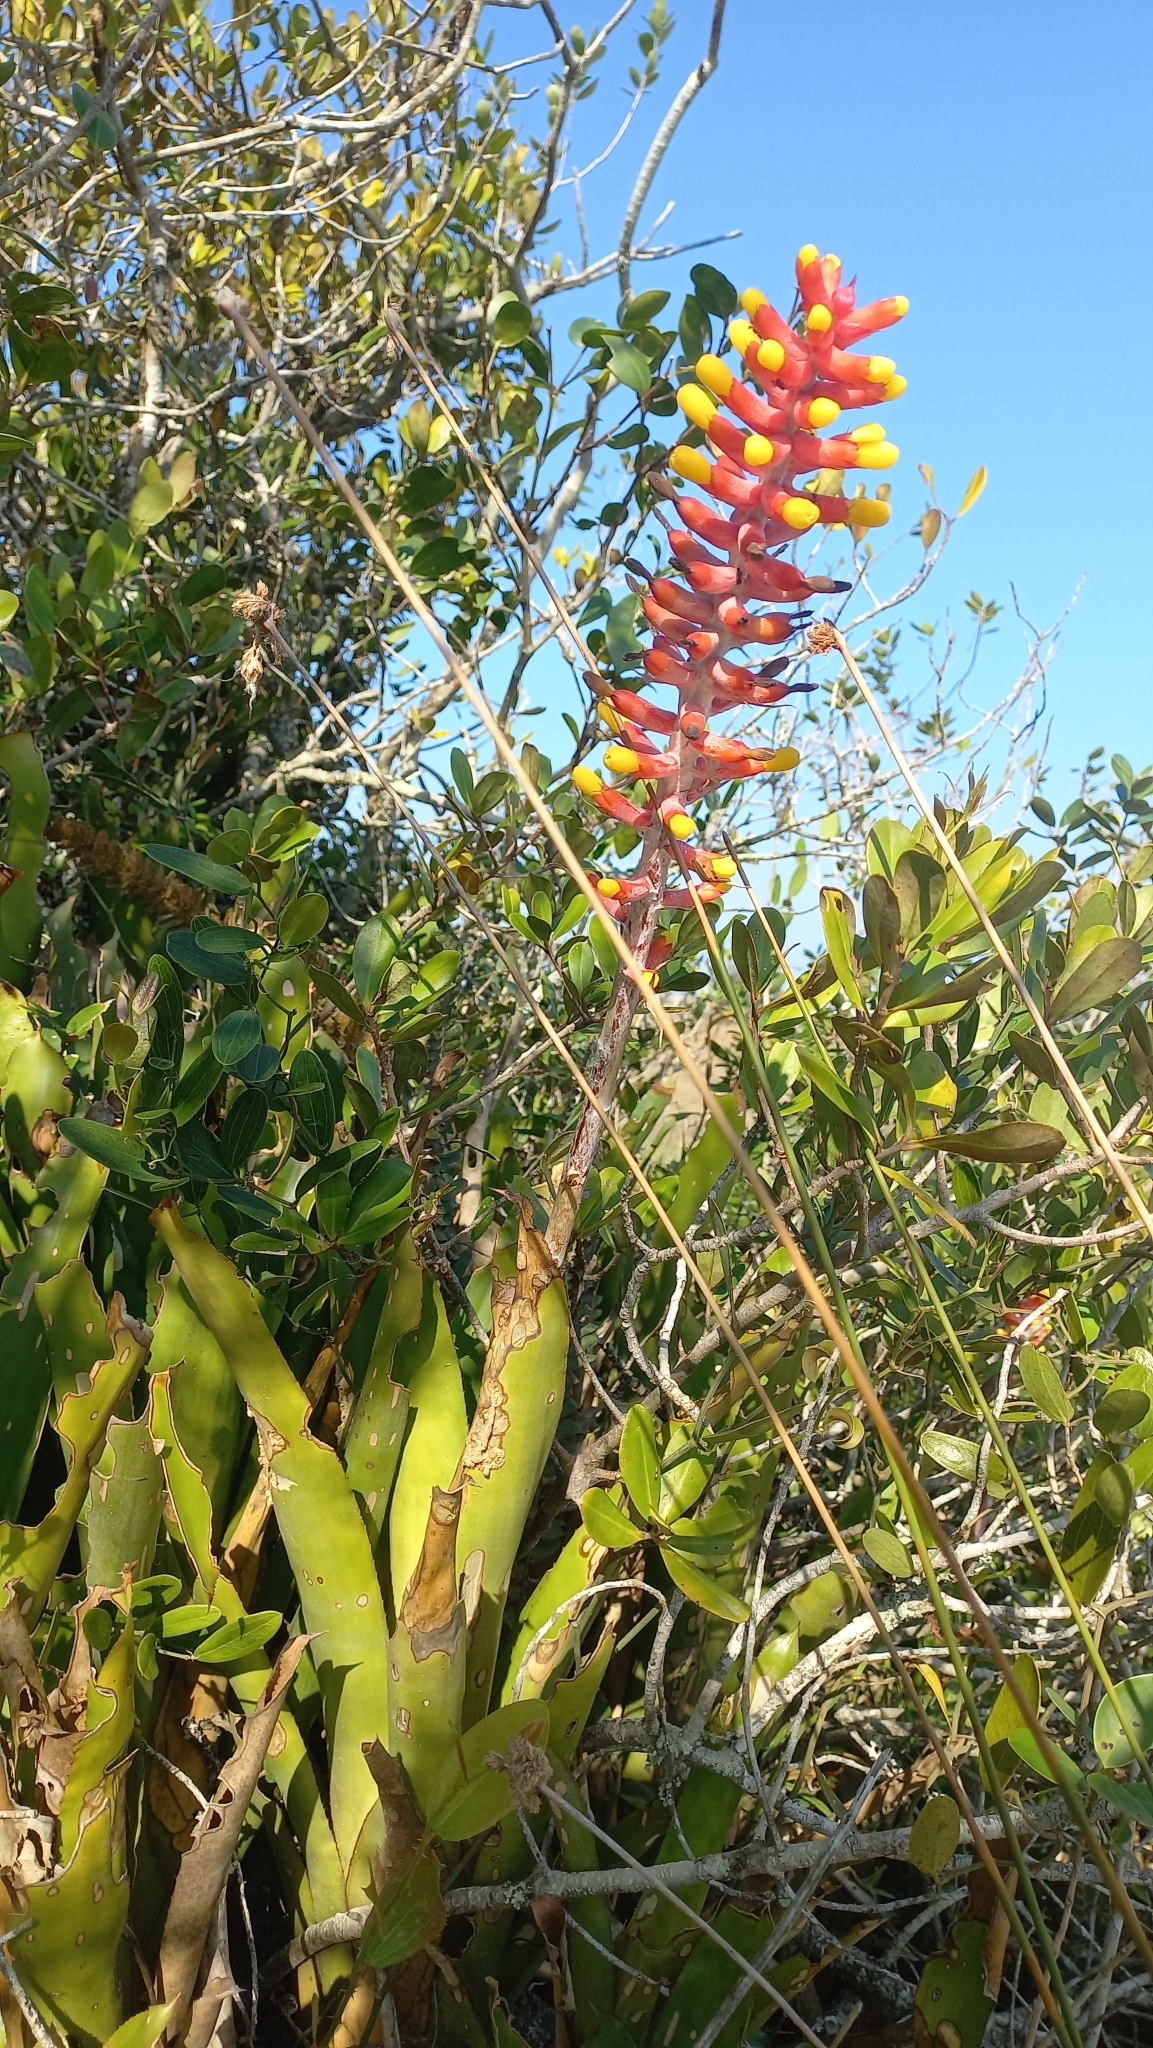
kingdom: Plantae
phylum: Tracheophyta
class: Liliopsida
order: Poales
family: Bromeliaceae
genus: Aechmea
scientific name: Aechmea kertesziae
